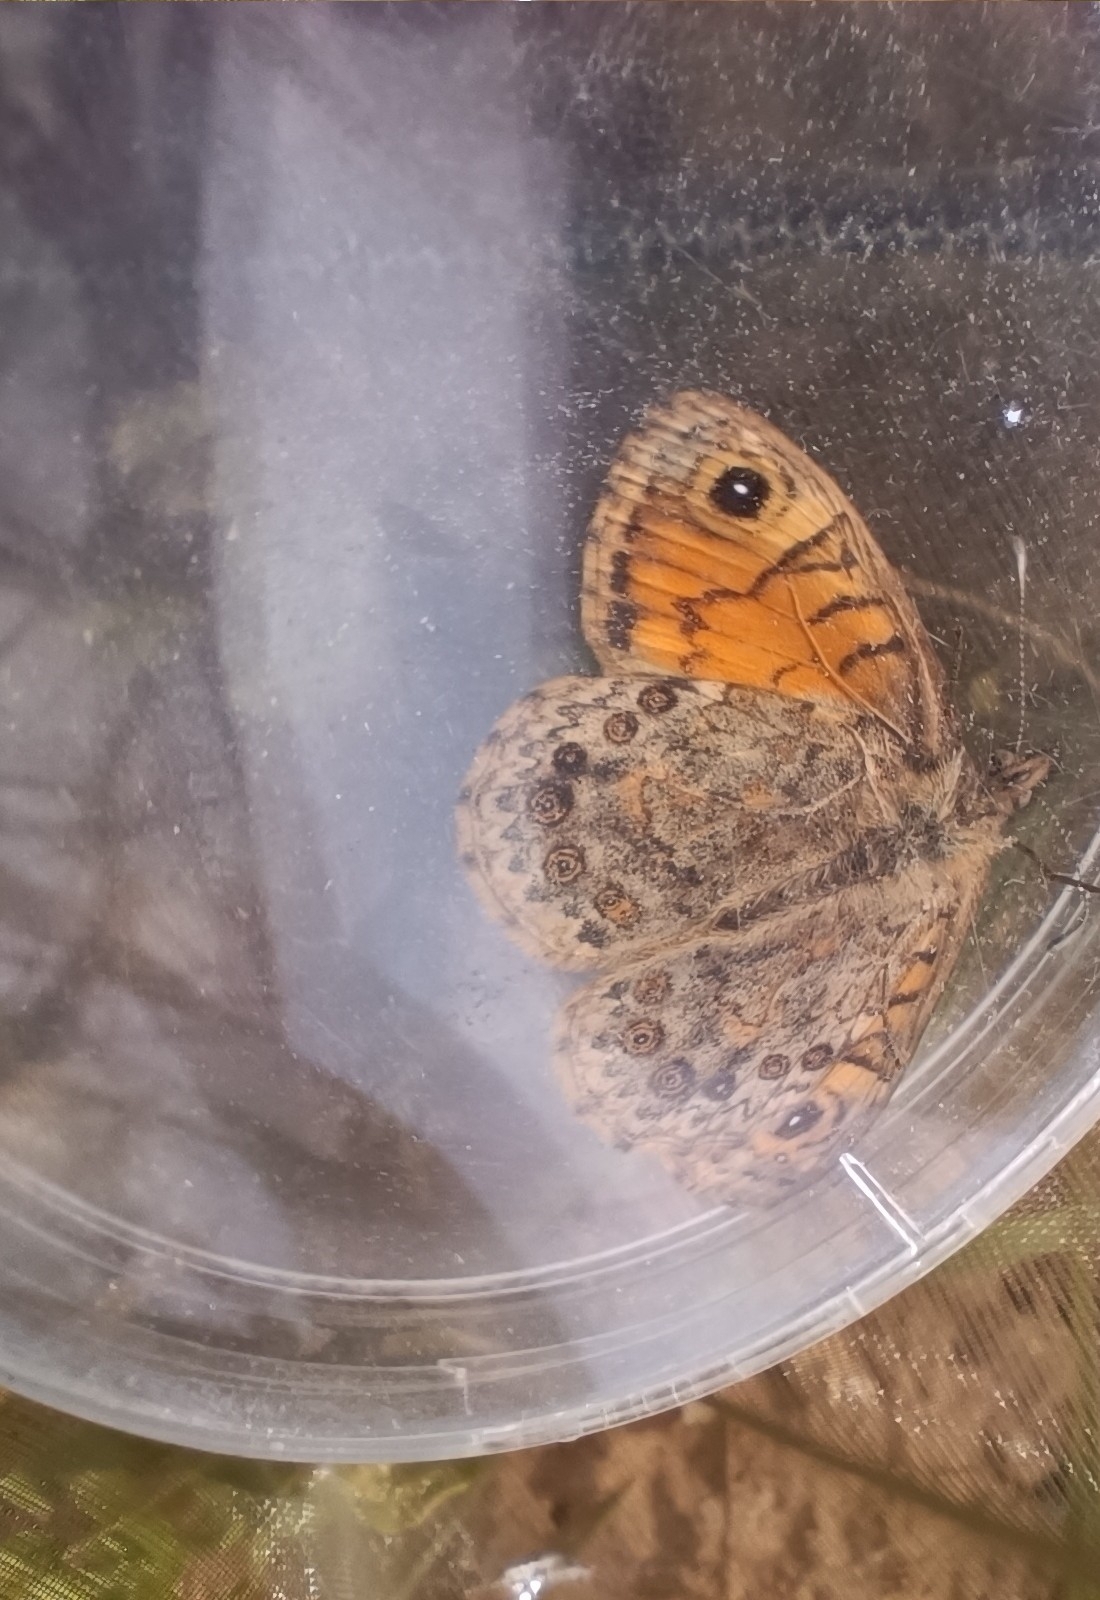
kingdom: Animalia
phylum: Arthropoda
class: Insecta
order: Lepidoptera
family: Nymphalidae
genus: Pararge
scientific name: Pararge Lasiommata megera
